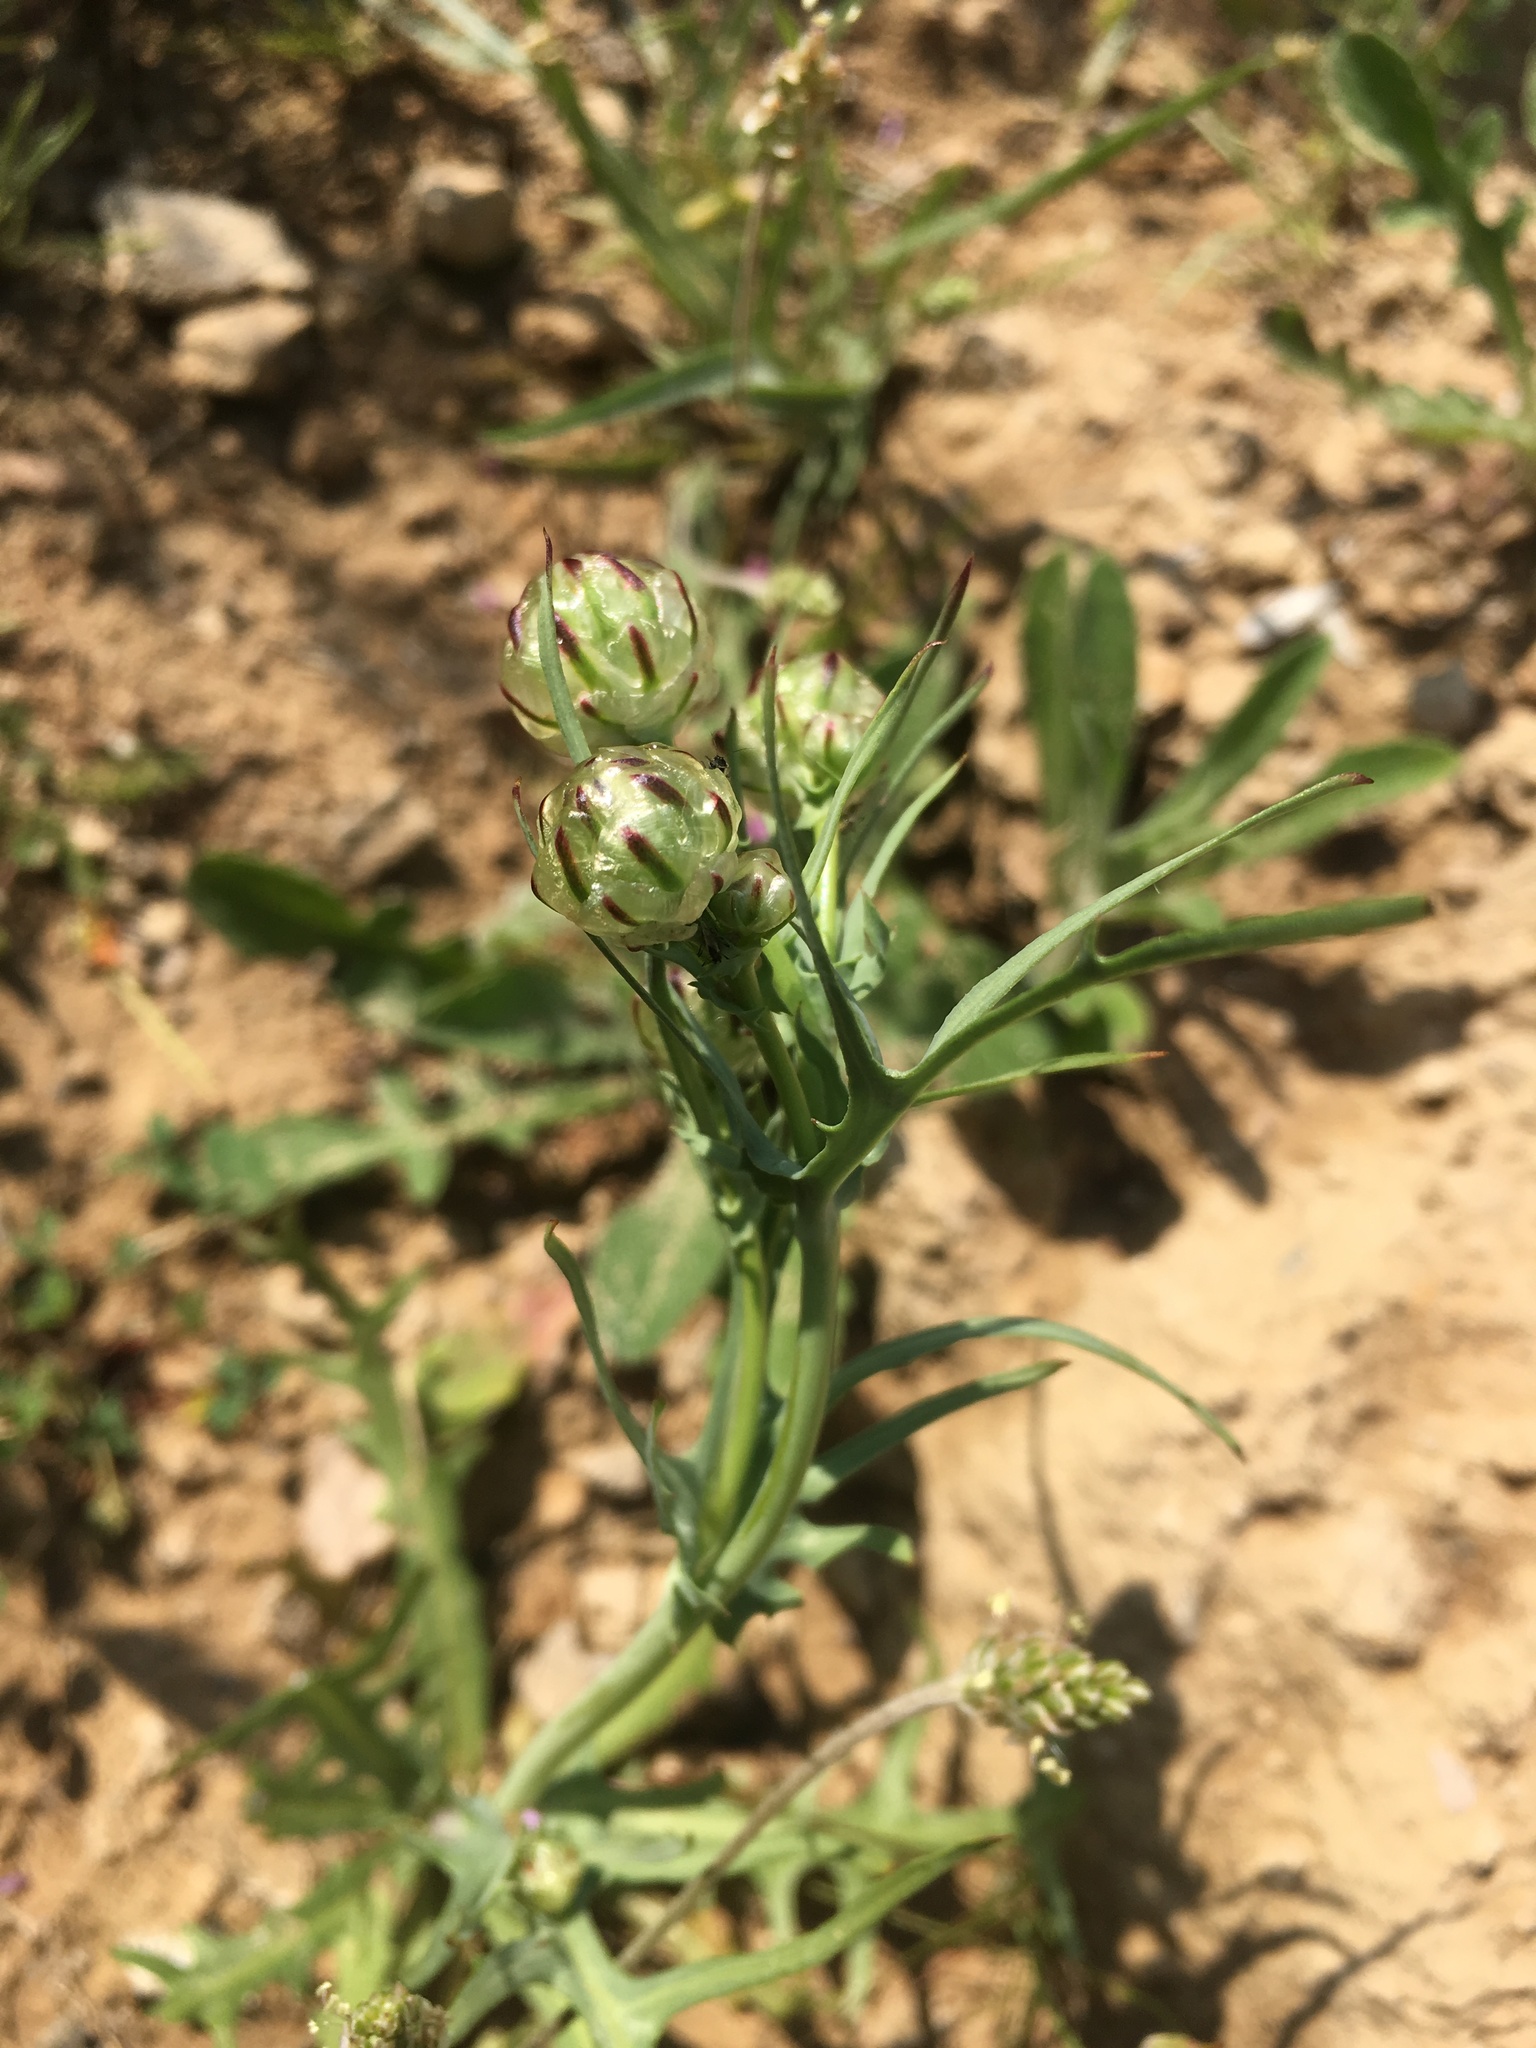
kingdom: Plantae
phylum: Tracheophyta
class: Magnoliopsida
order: Asterales
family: Asteraceae
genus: Malacothrix
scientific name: Malacothrix coulteri
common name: Snake's-head
